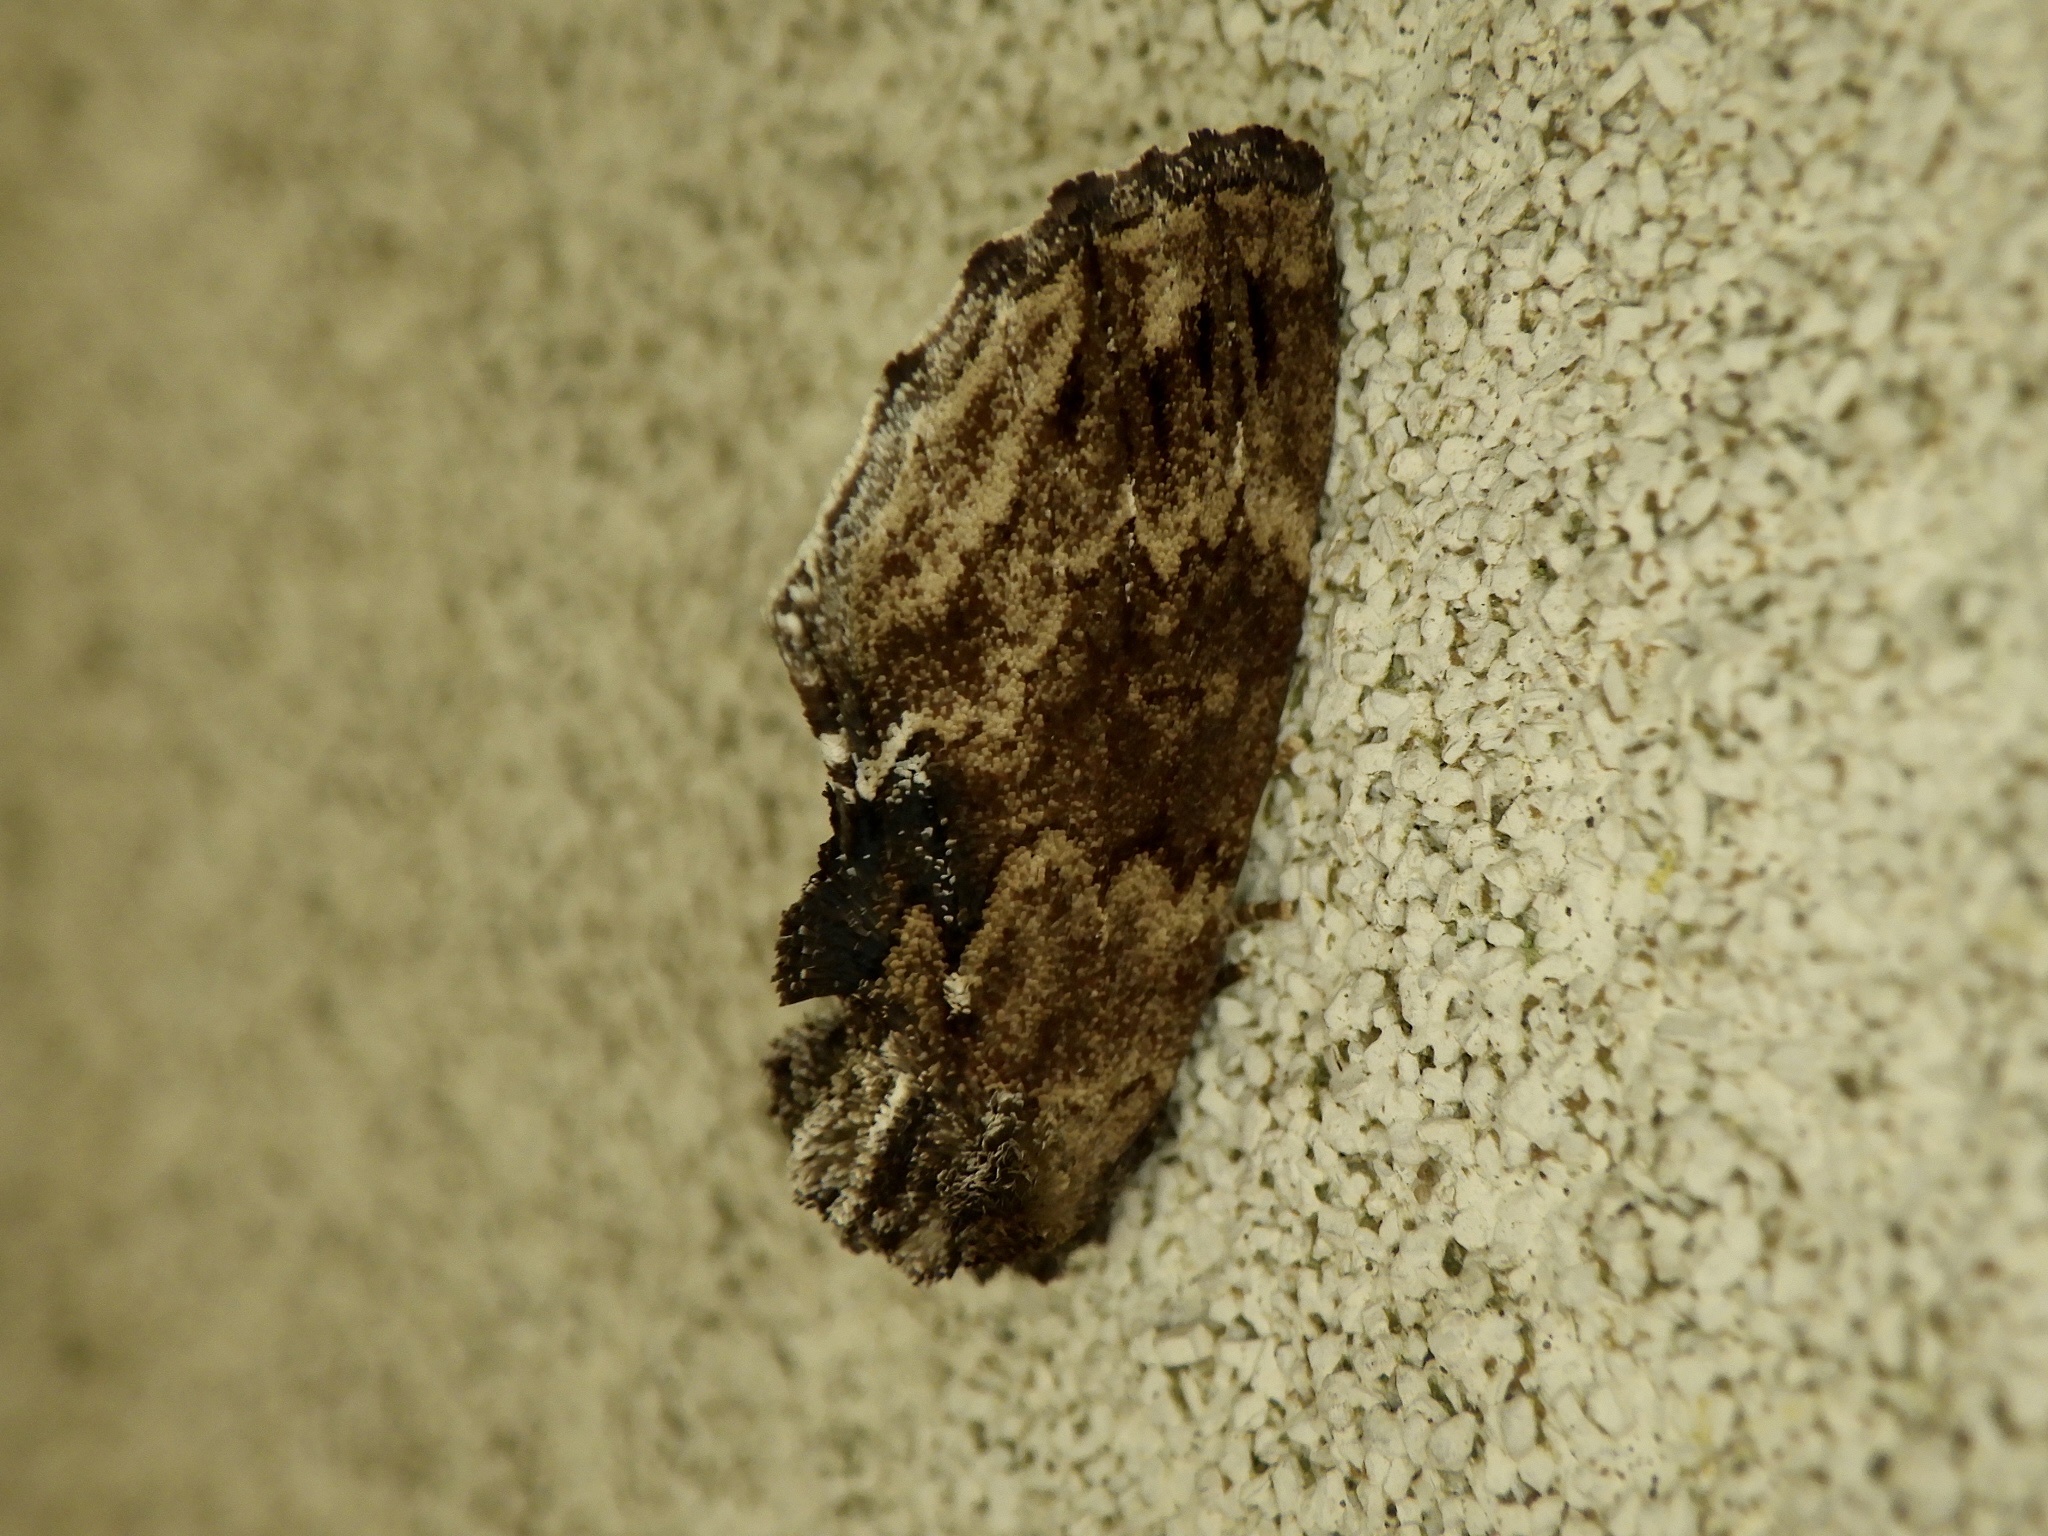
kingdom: Animalia
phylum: Arthropoda
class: Insecta
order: Lepidoptera
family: Notodontidae
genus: Lophontosia
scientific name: Lophontosia
